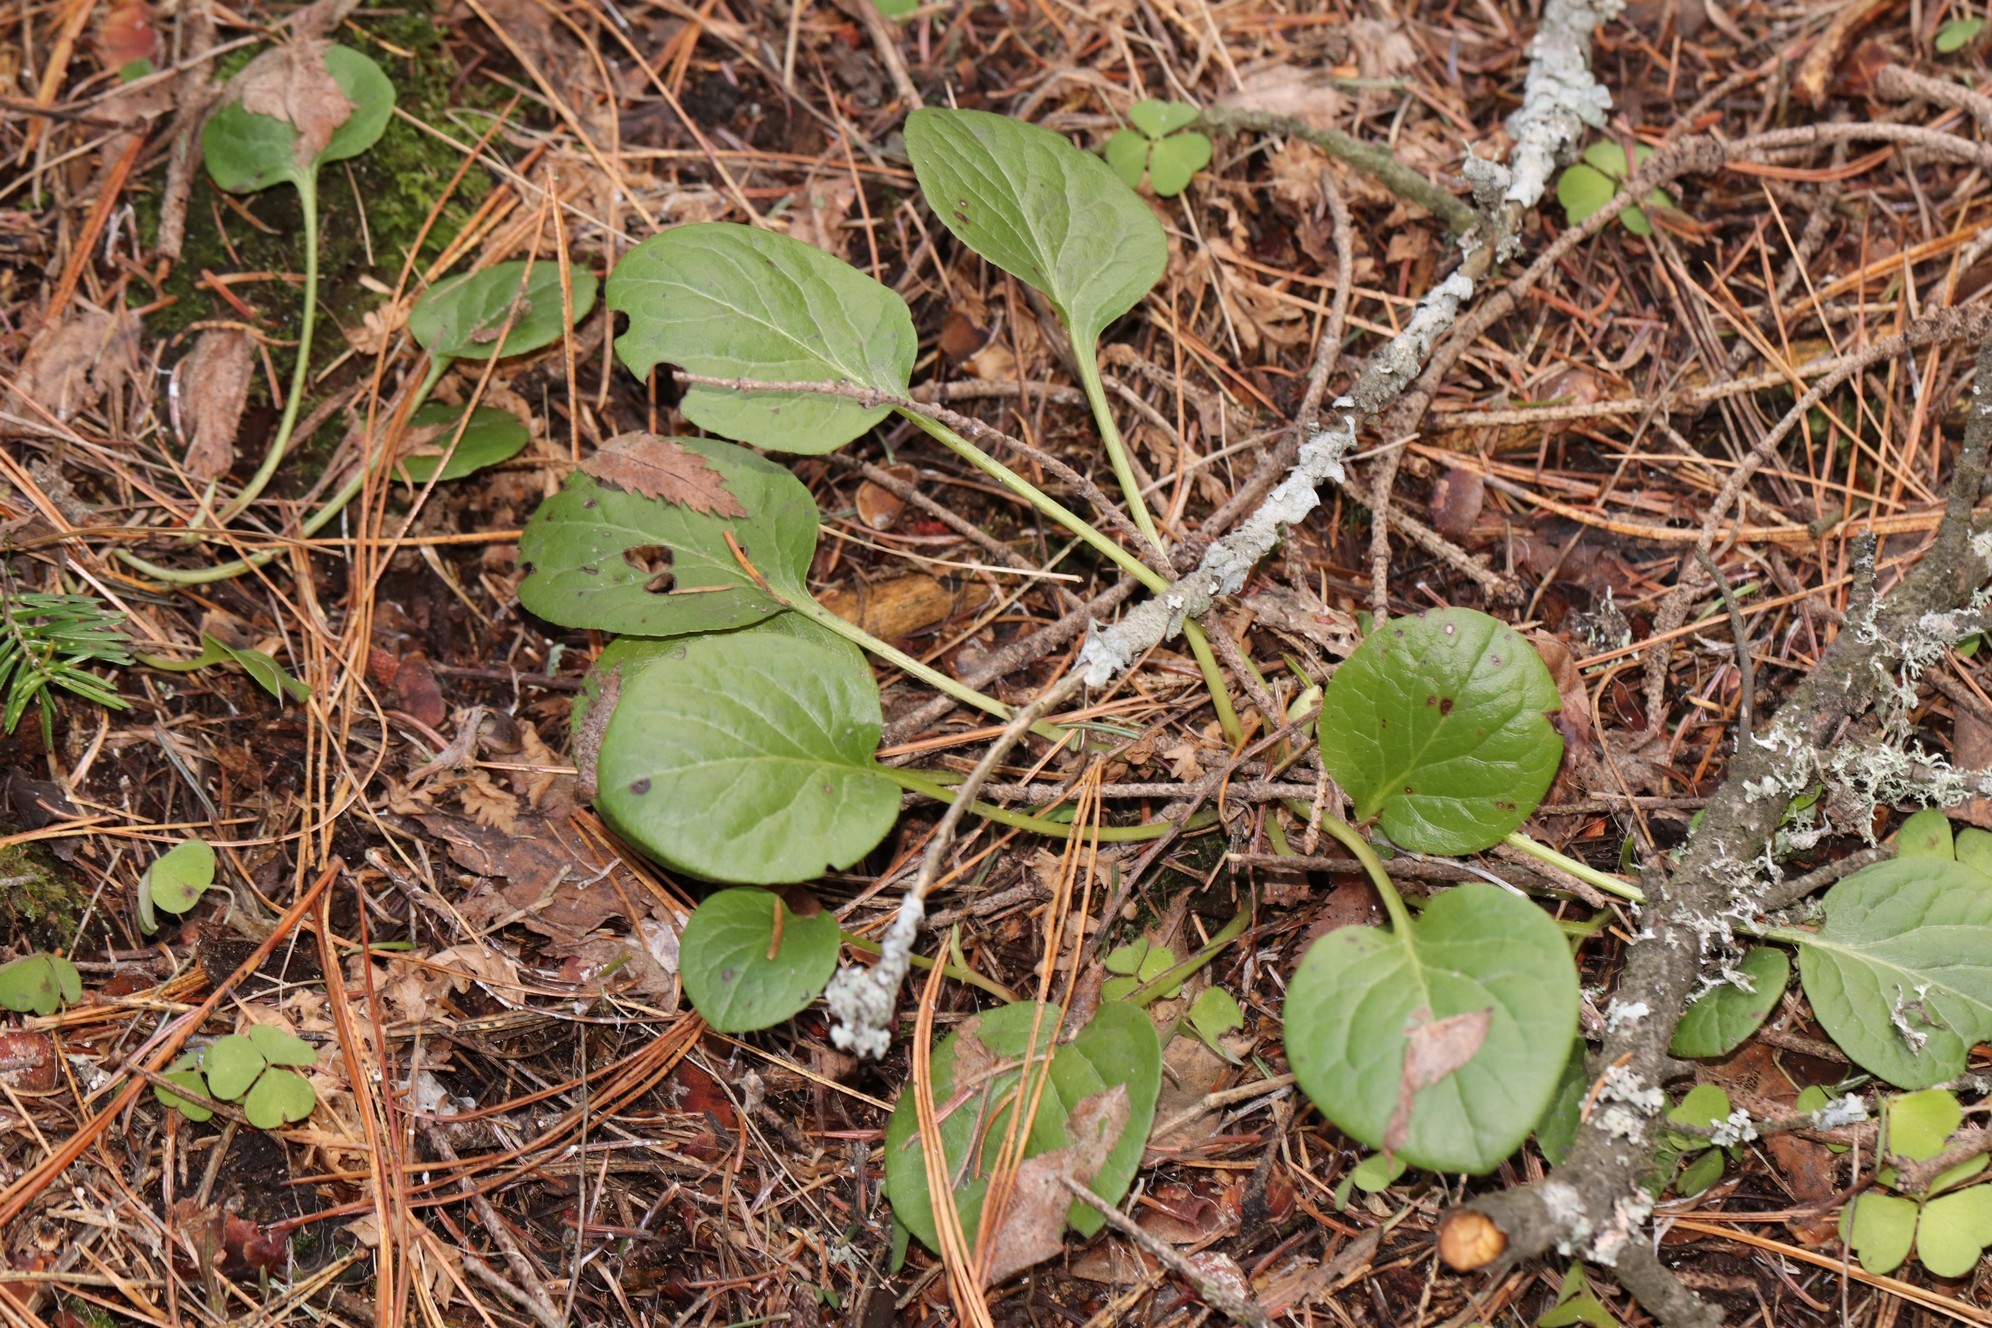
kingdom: Plantae
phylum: Tracheophyta
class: Magnoliopsida
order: Ericales
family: Ericaceae
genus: Pyrola
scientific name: Pyrola rotundifolia
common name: Round-leaved wintergreen
